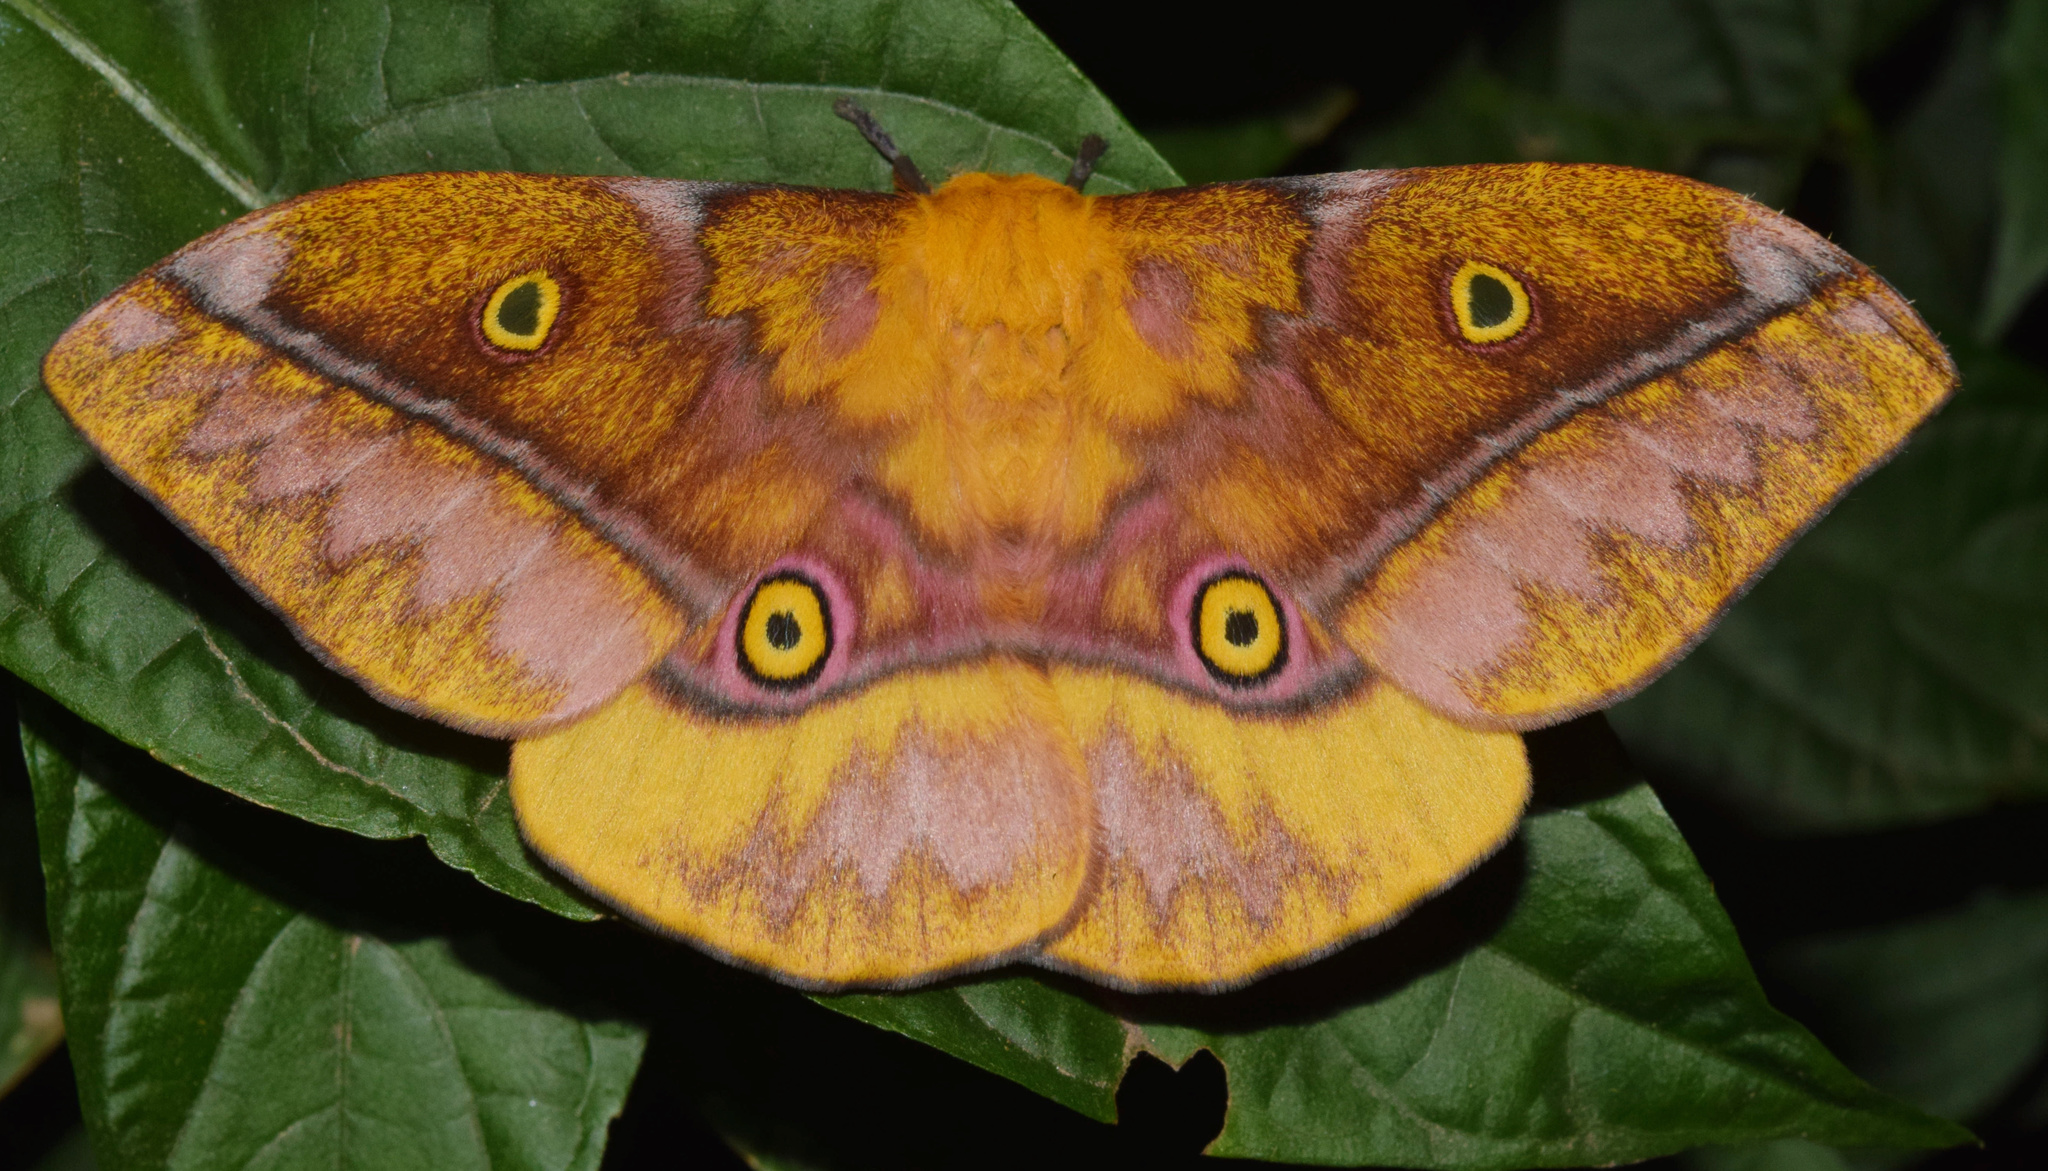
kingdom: Animalia
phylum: Arthropoda
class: Insecta
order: Lepidoptera
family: Saturniidae
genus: Nudaurelia
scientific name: Nudaurelia wahlbergi
